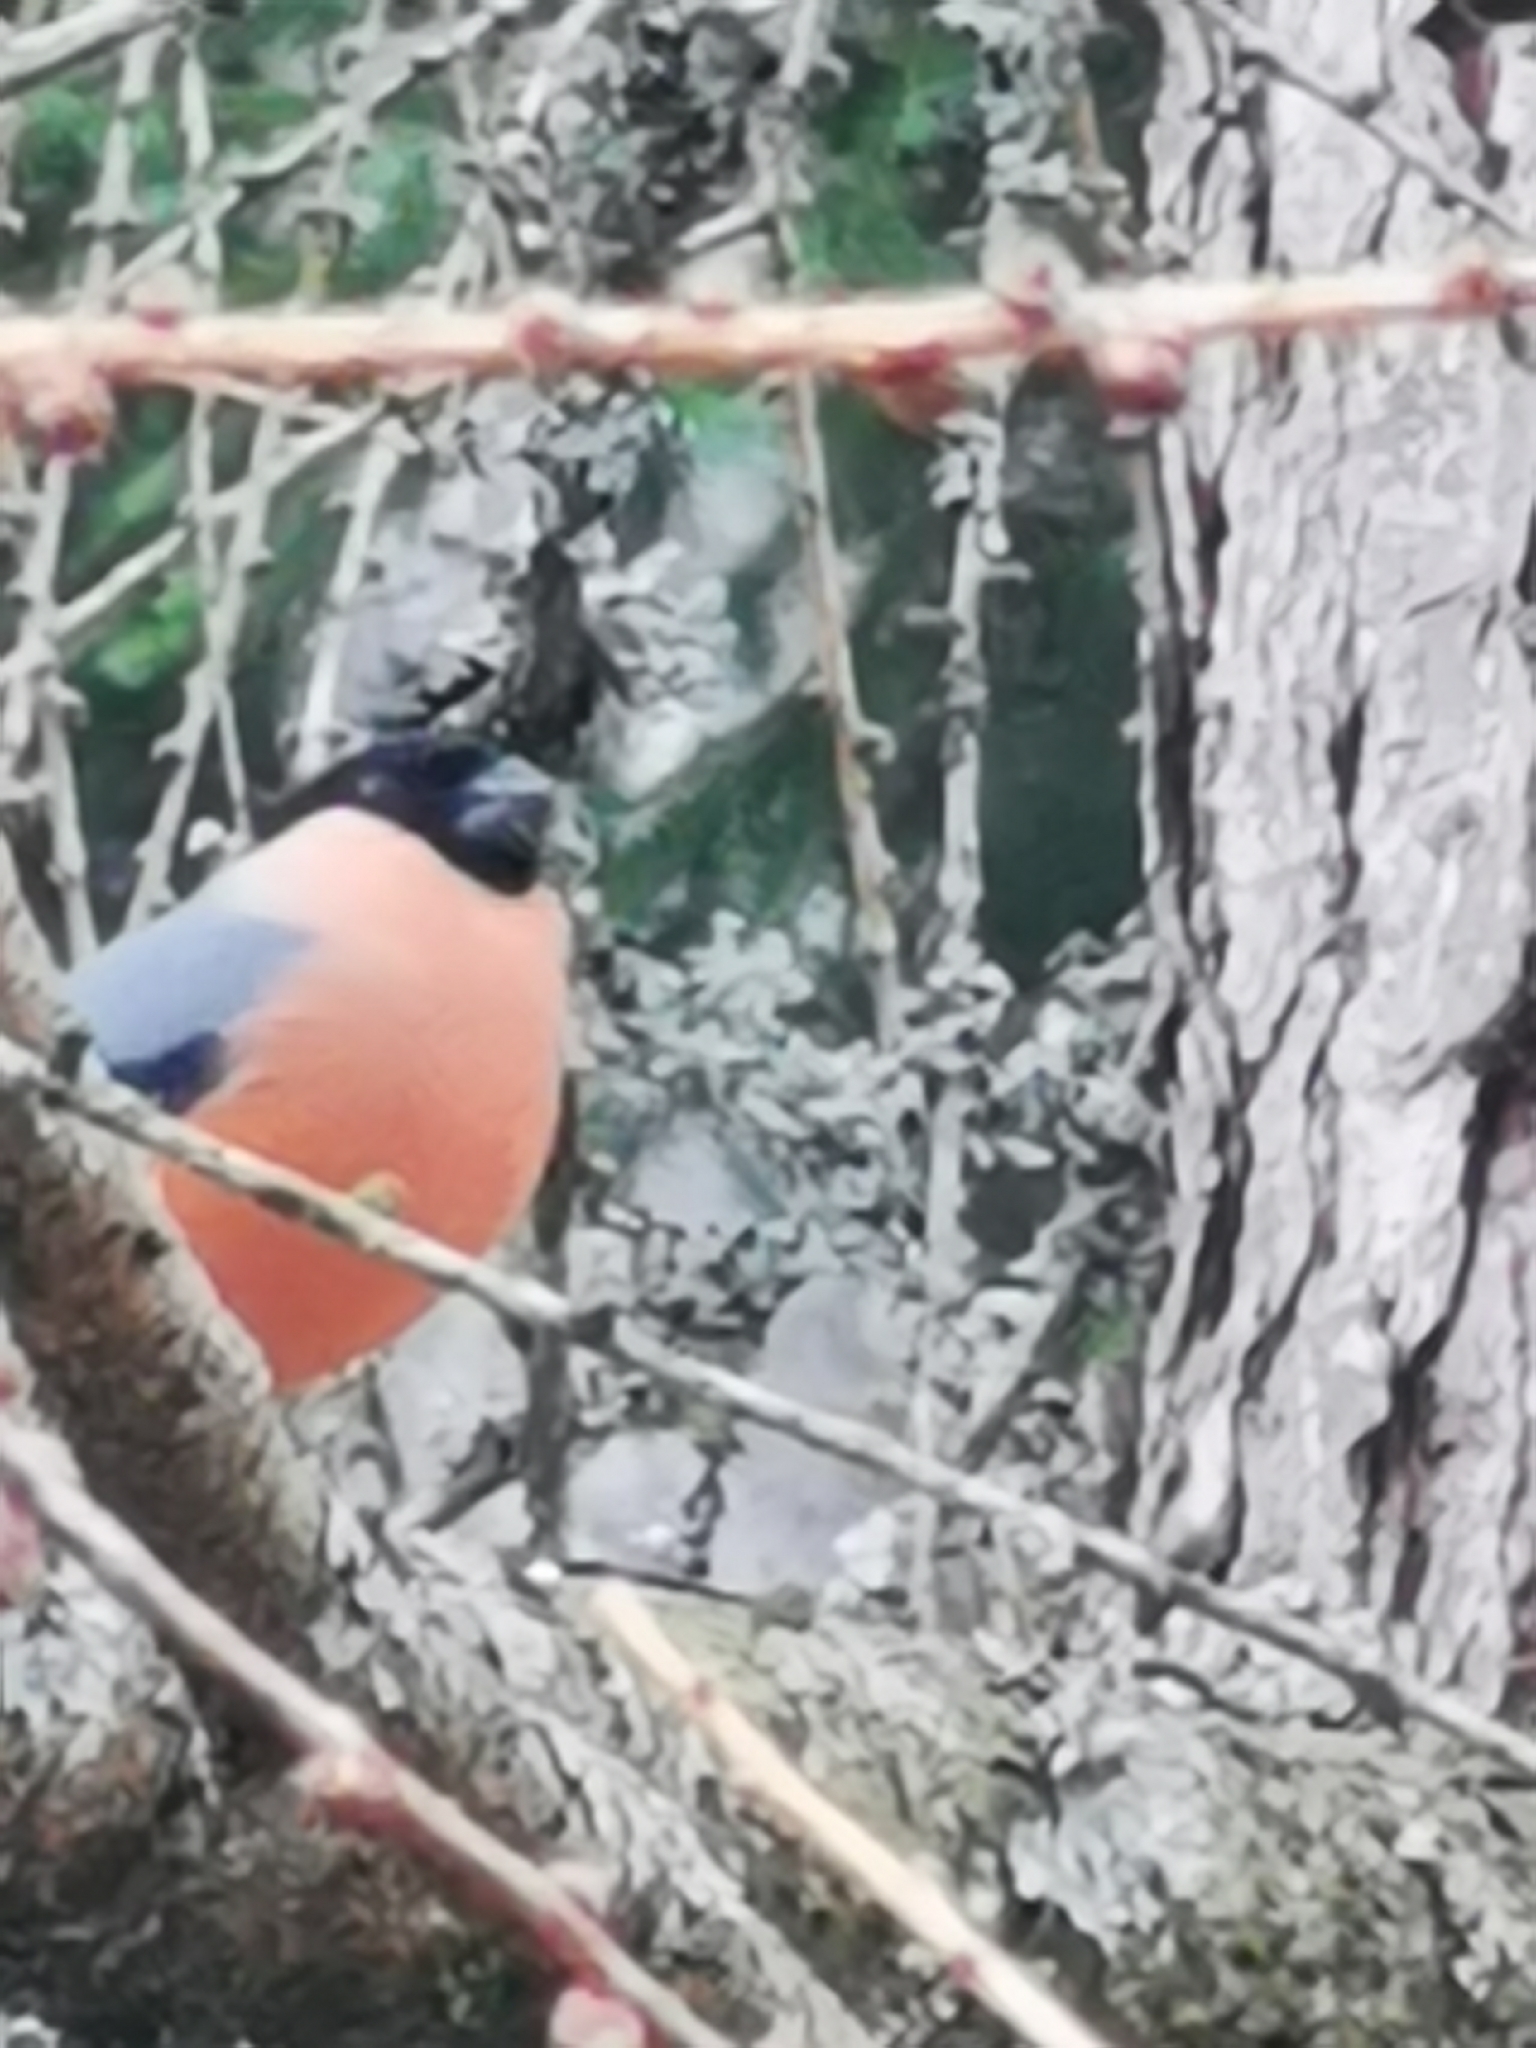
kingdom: Animalia
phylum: Chordata
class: Aves
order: Passeriformes
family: Fringillidae
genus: Pyrrhula
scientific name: Pyrrhula pyrrhula
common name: Eurasian bullfinch
